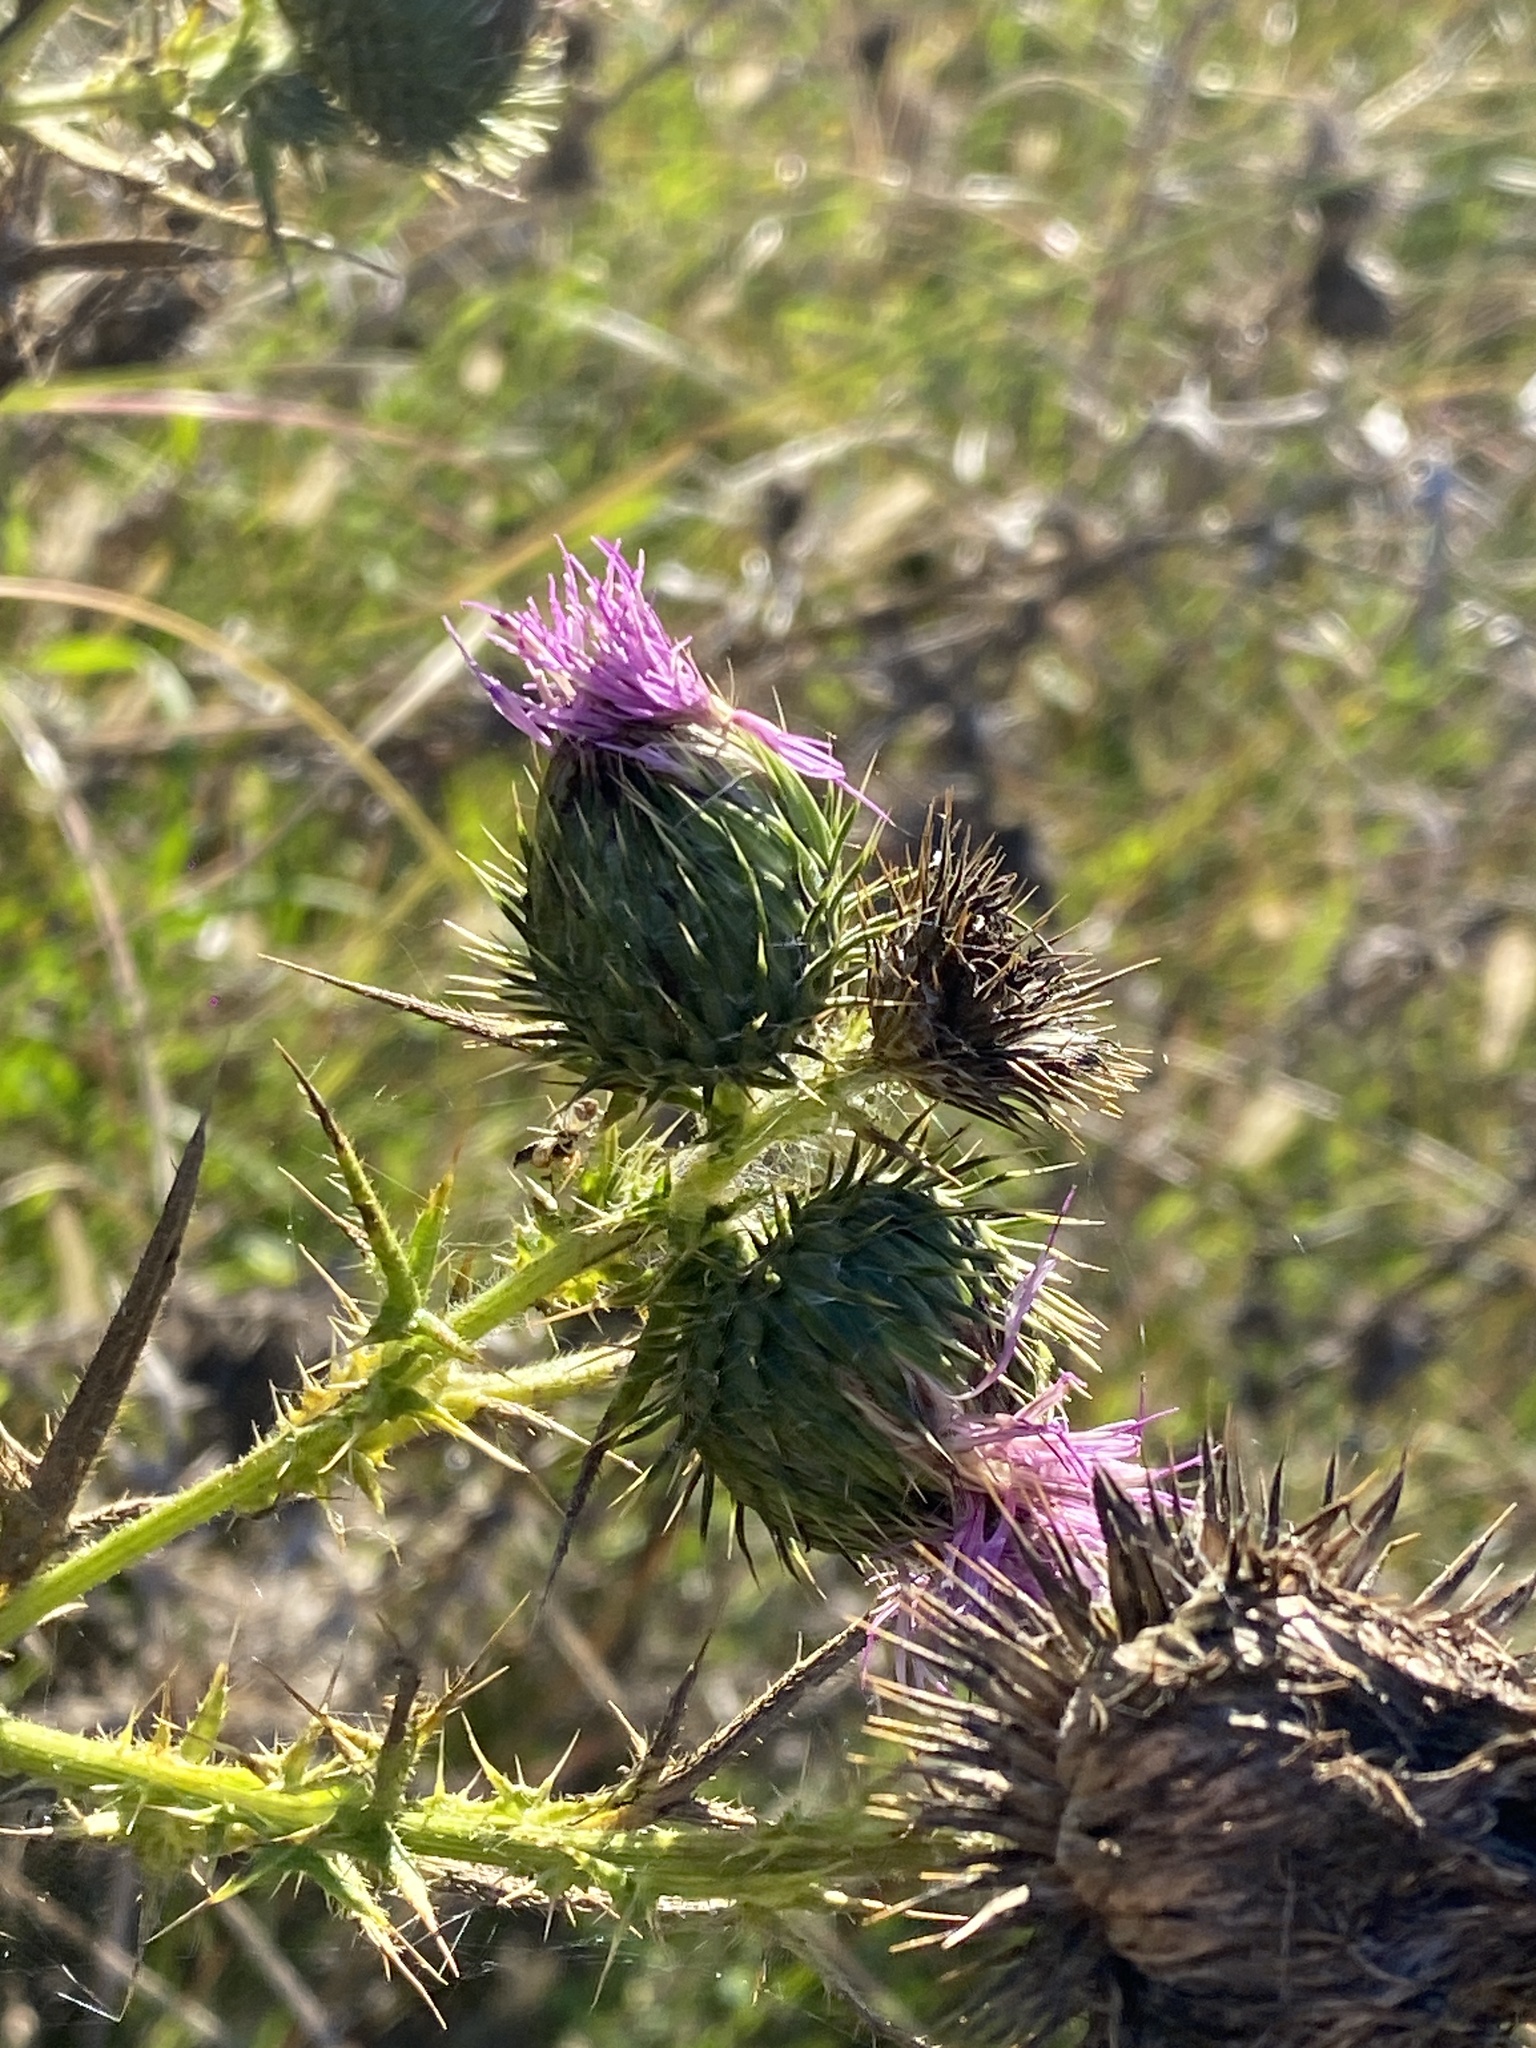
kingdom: Plantae
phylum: Tracheophyta
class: Magnoliopsida
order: Asterales
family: Asteraceae
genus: Cirsium
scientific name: Cirsium vulgare
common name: Bull thistle
